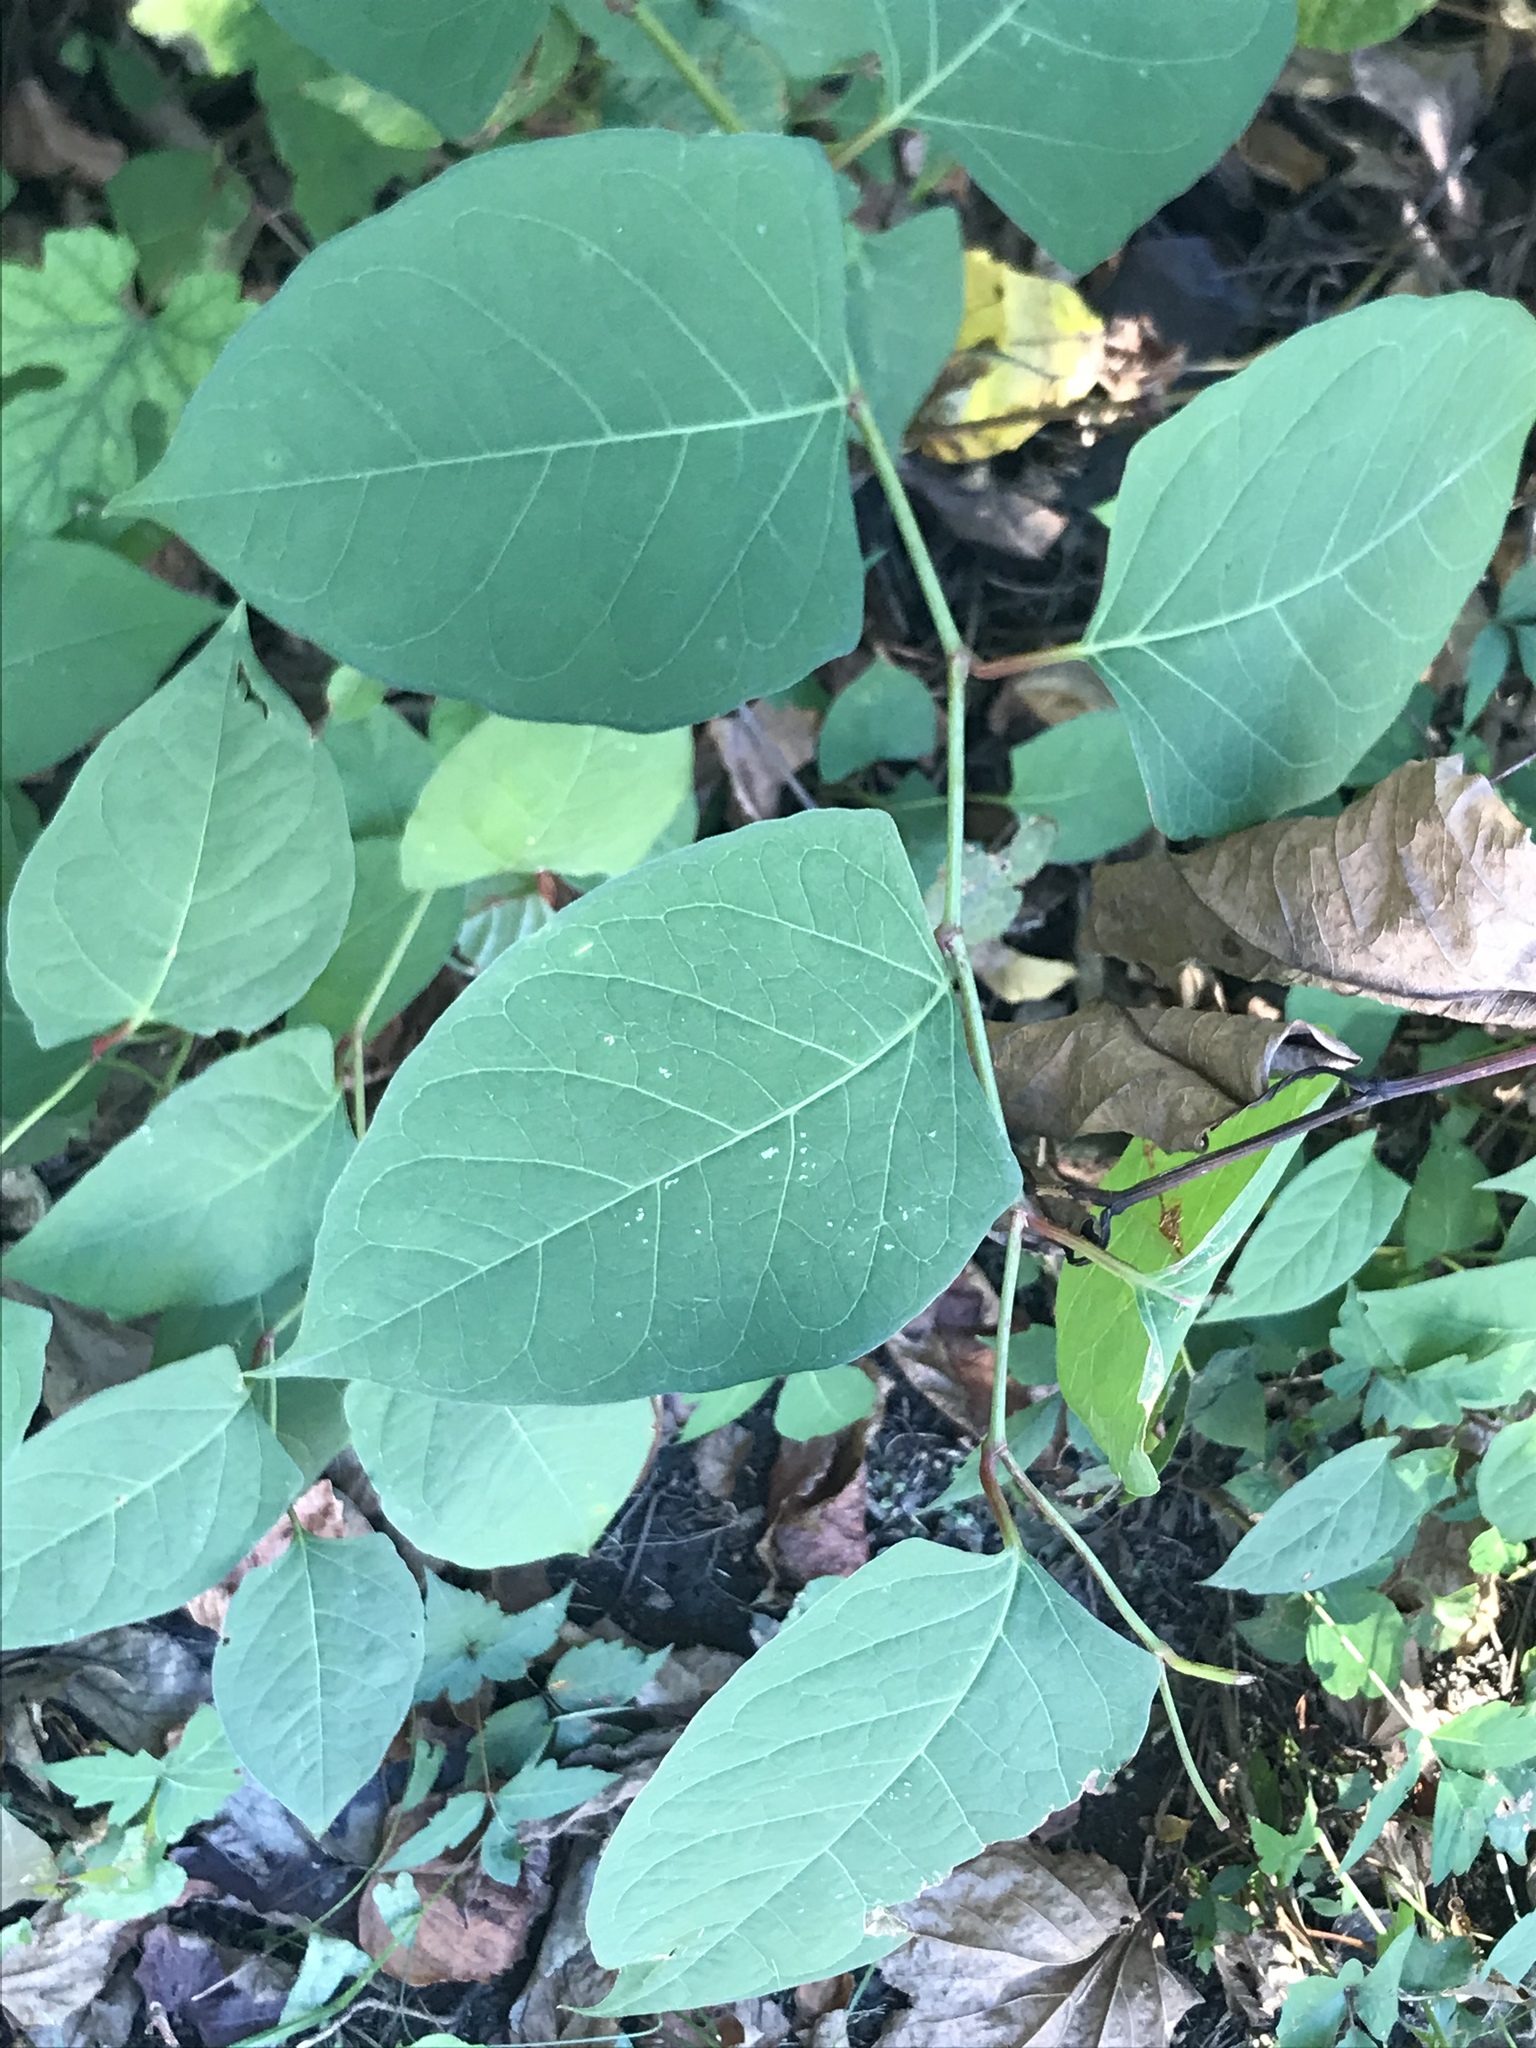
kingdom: Plantae
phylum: Tracheophyta
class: Magnoliopsida
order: Caryophyllales
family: Polygonaceae
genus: Reynoutria
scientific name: Reynoutria japonica
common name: Japanese knotweed
